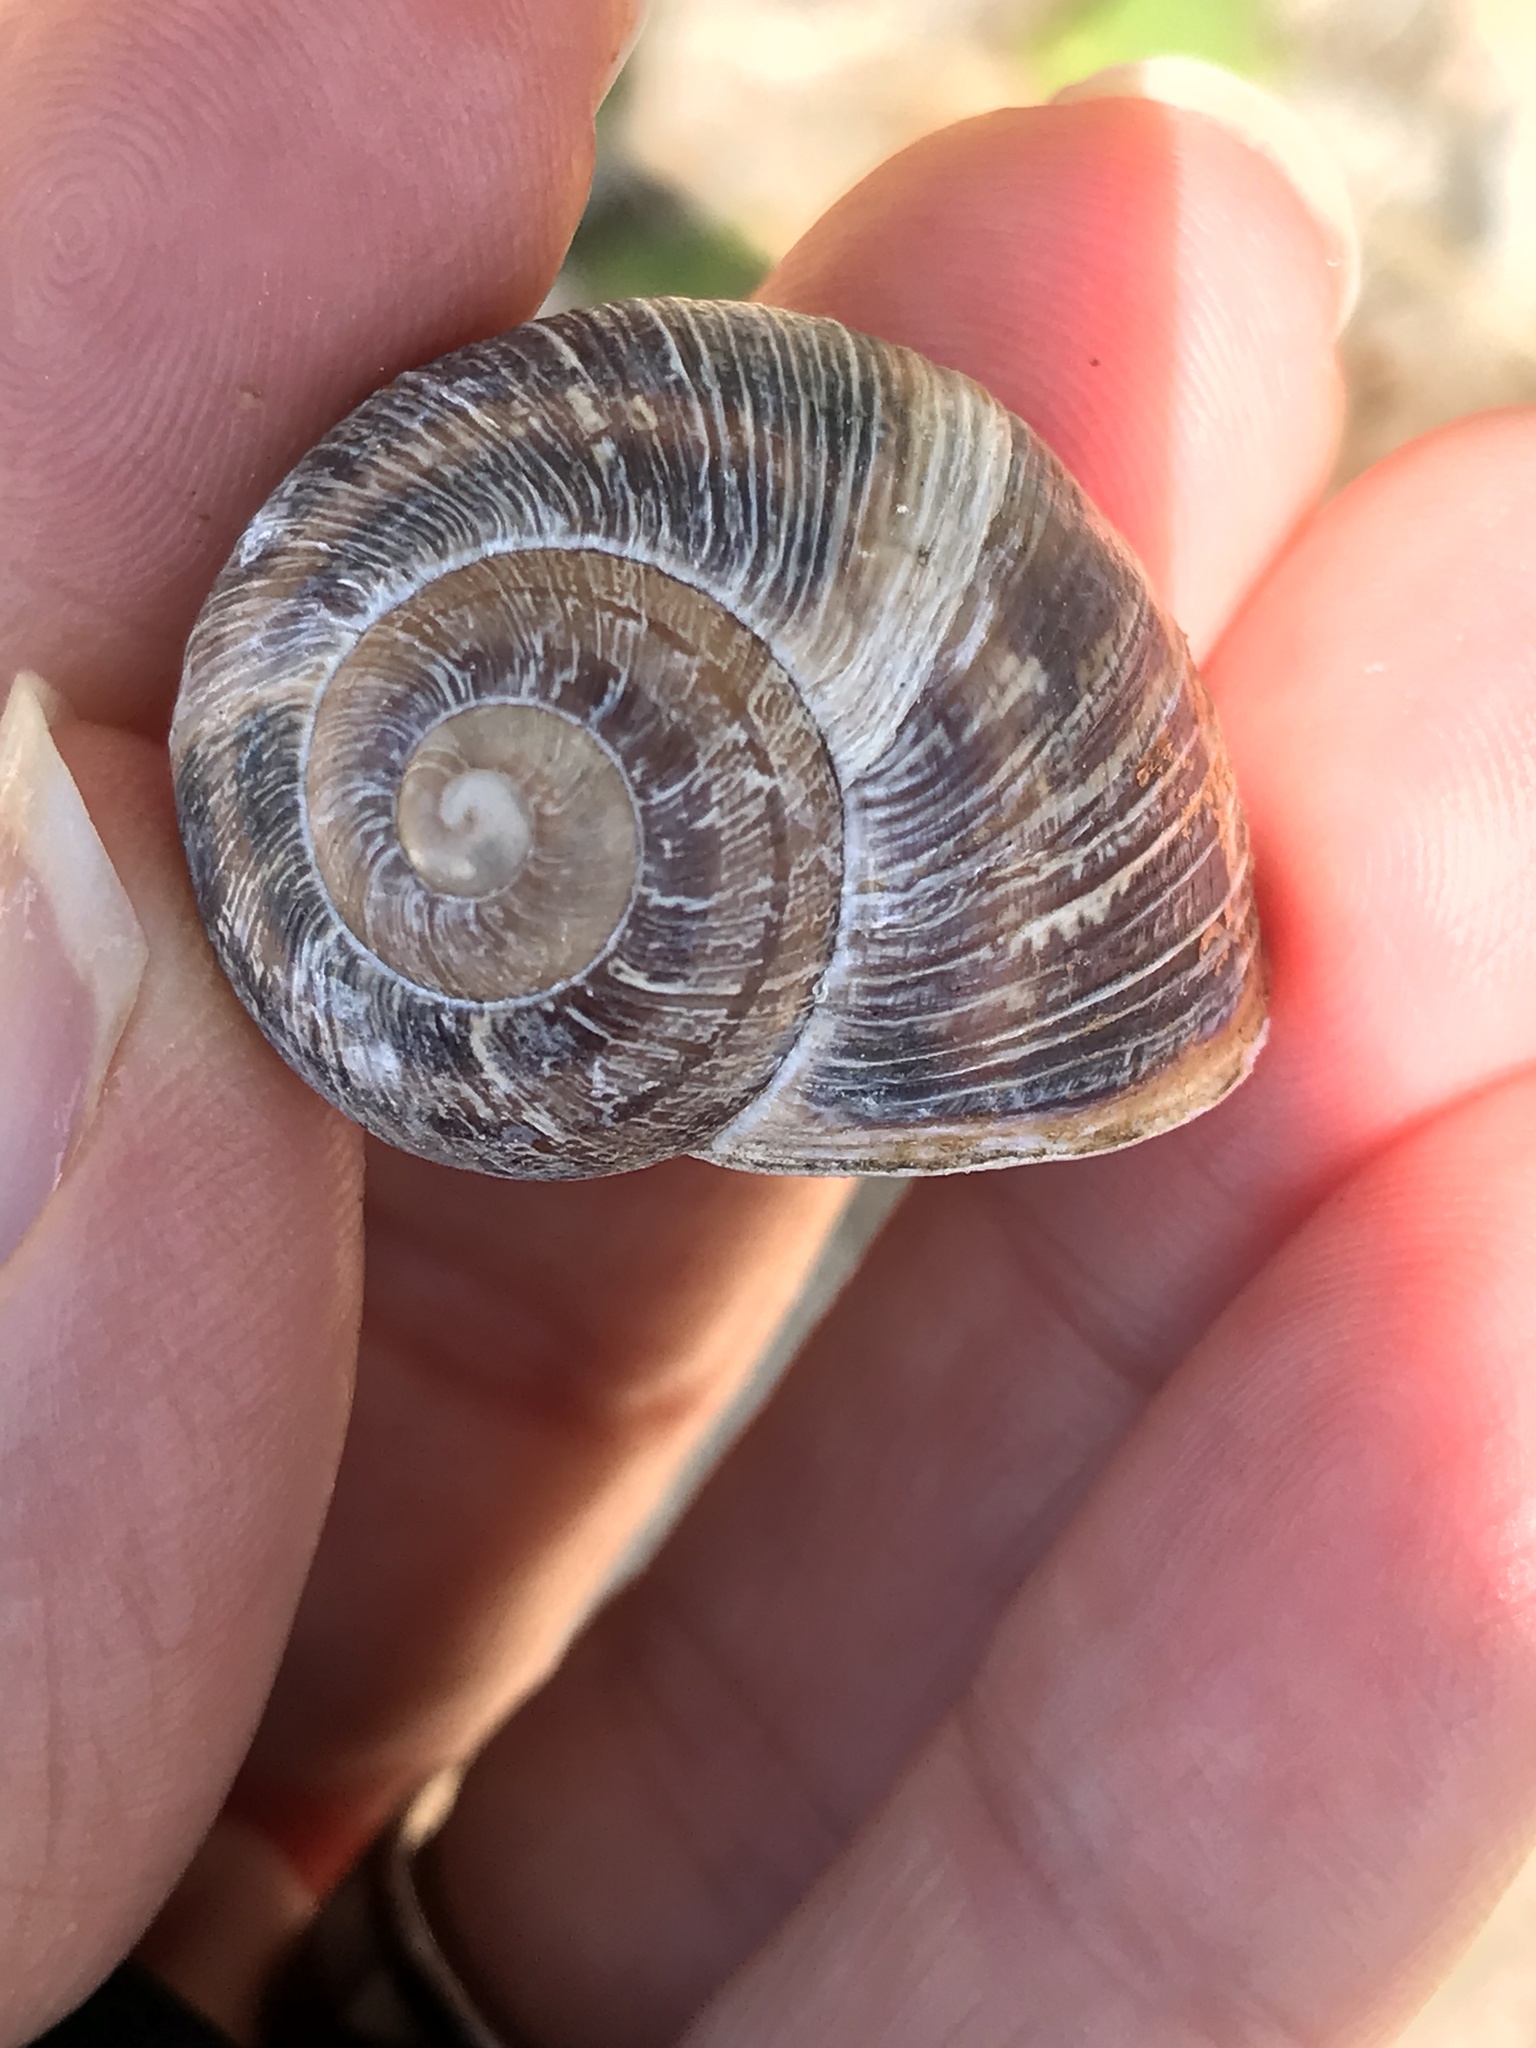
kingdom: Animalia
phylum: Mollusca
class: Gastropoda
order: Stylommatophora
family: Helicidae
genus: Cornu
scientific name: Cornu aspersum
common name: Brown garden snail
